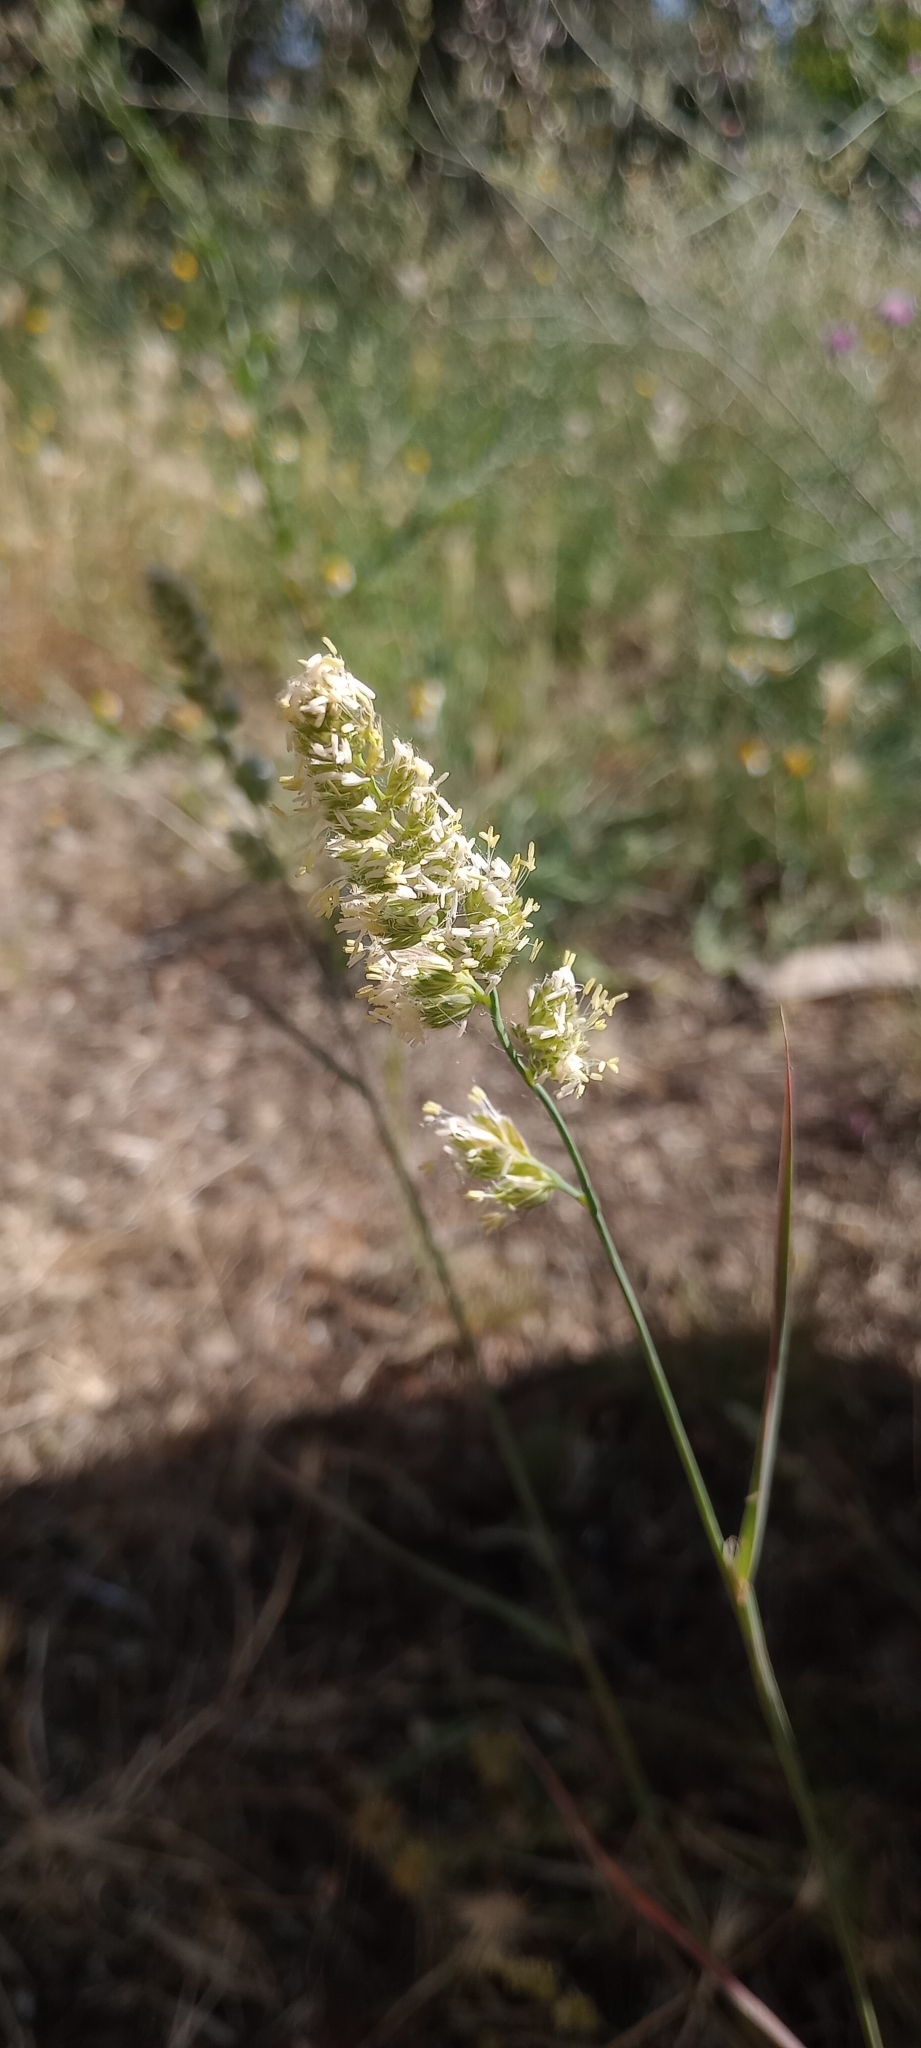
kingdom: Plantae
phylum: Tracheophyta
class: Liliopsida
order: Poales
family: Poaceae
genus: Dactylis
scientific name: Dactylis glomerata
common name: Orchardgrass
